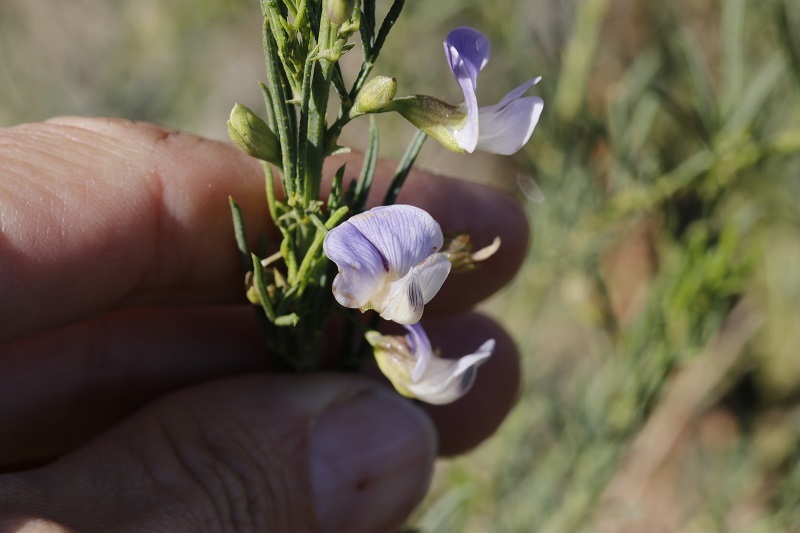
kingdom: Plantae
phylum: Tracheophyta
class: Magnoliopsida
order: Fabales
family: Fabaceae
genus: Psoralea
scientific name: Psoralea
